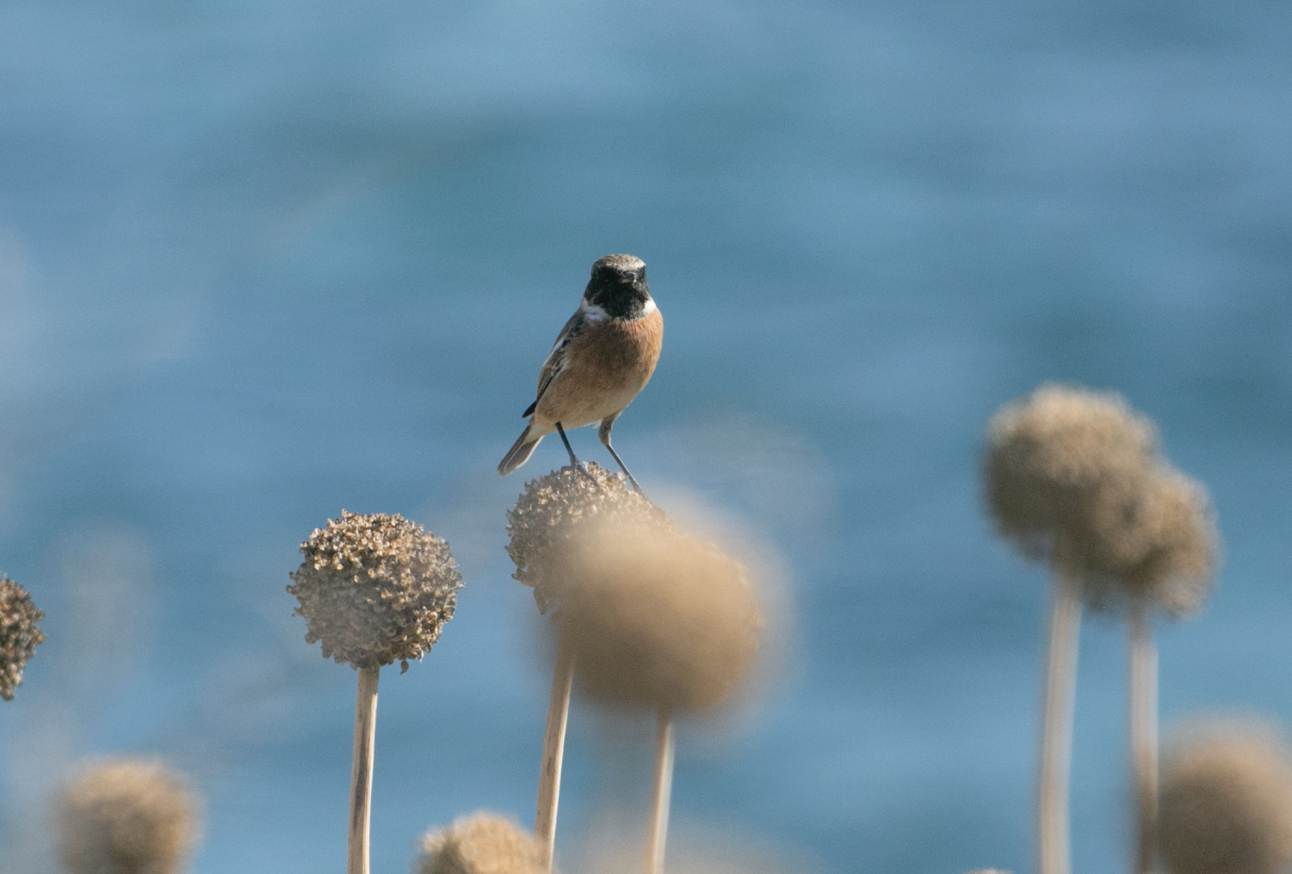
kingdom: Animalia
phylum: Chordata
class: Aves
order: Passeriformes
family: Muscicapidae
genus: Saxicola
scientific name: Saxicola rubicola
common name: European stonechat
